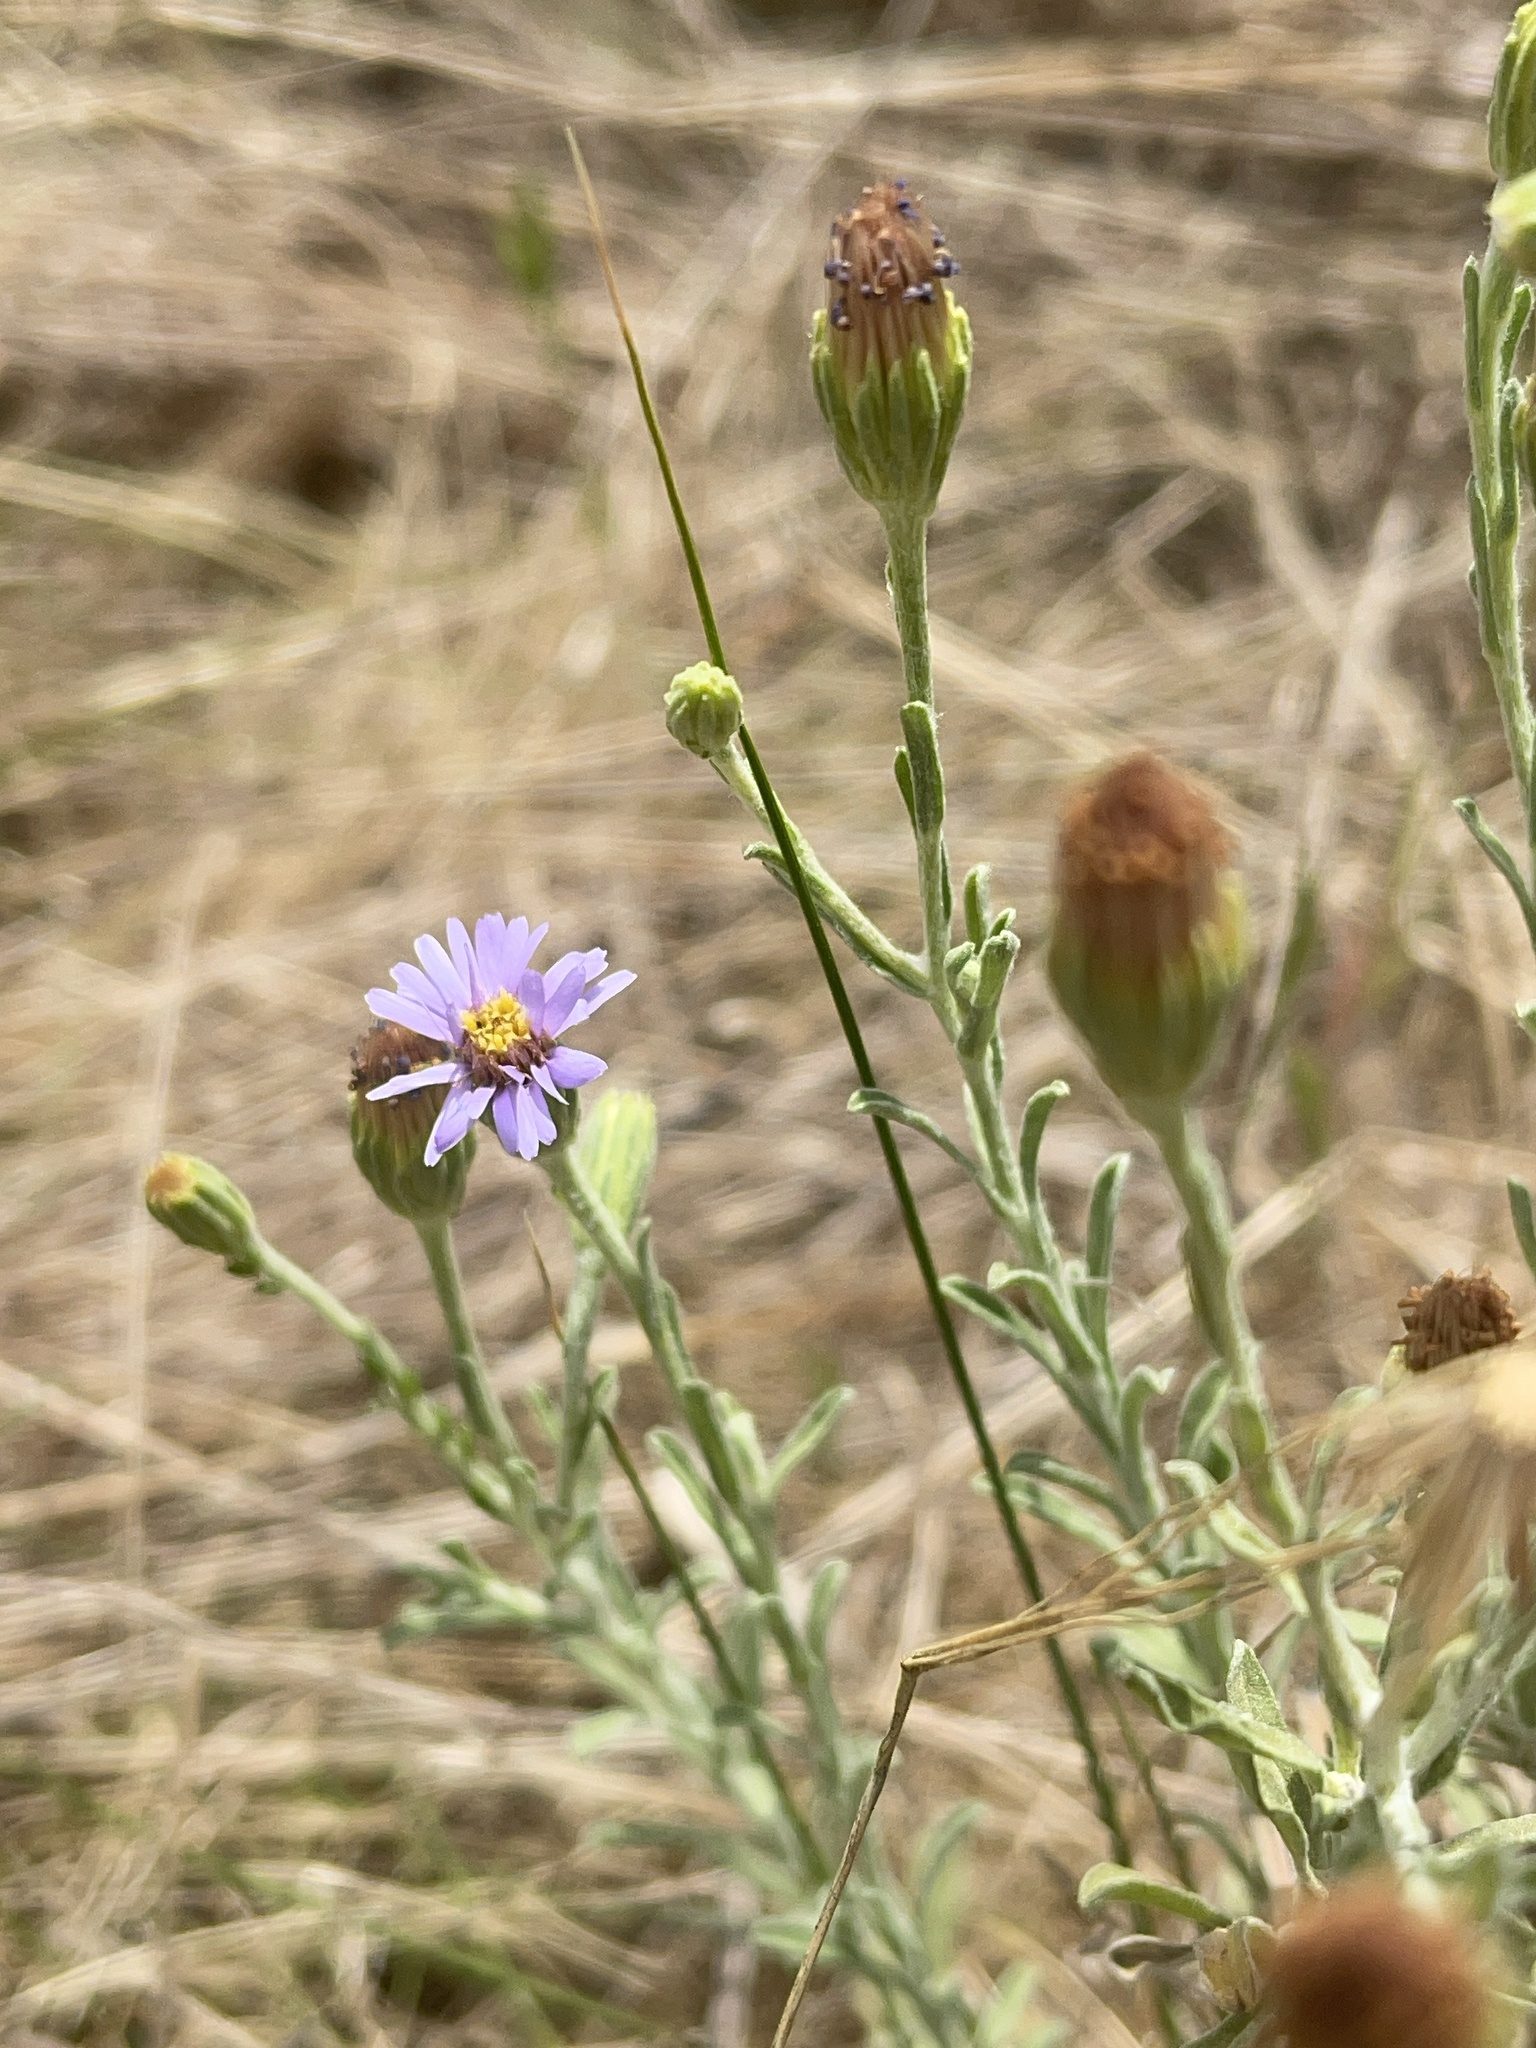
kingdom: Plantae
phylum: Tracheophyta
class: Magnoliopsida
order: Asterales
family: Asteraceae
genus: Vittadinia
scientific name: Vittadinia gracilis
